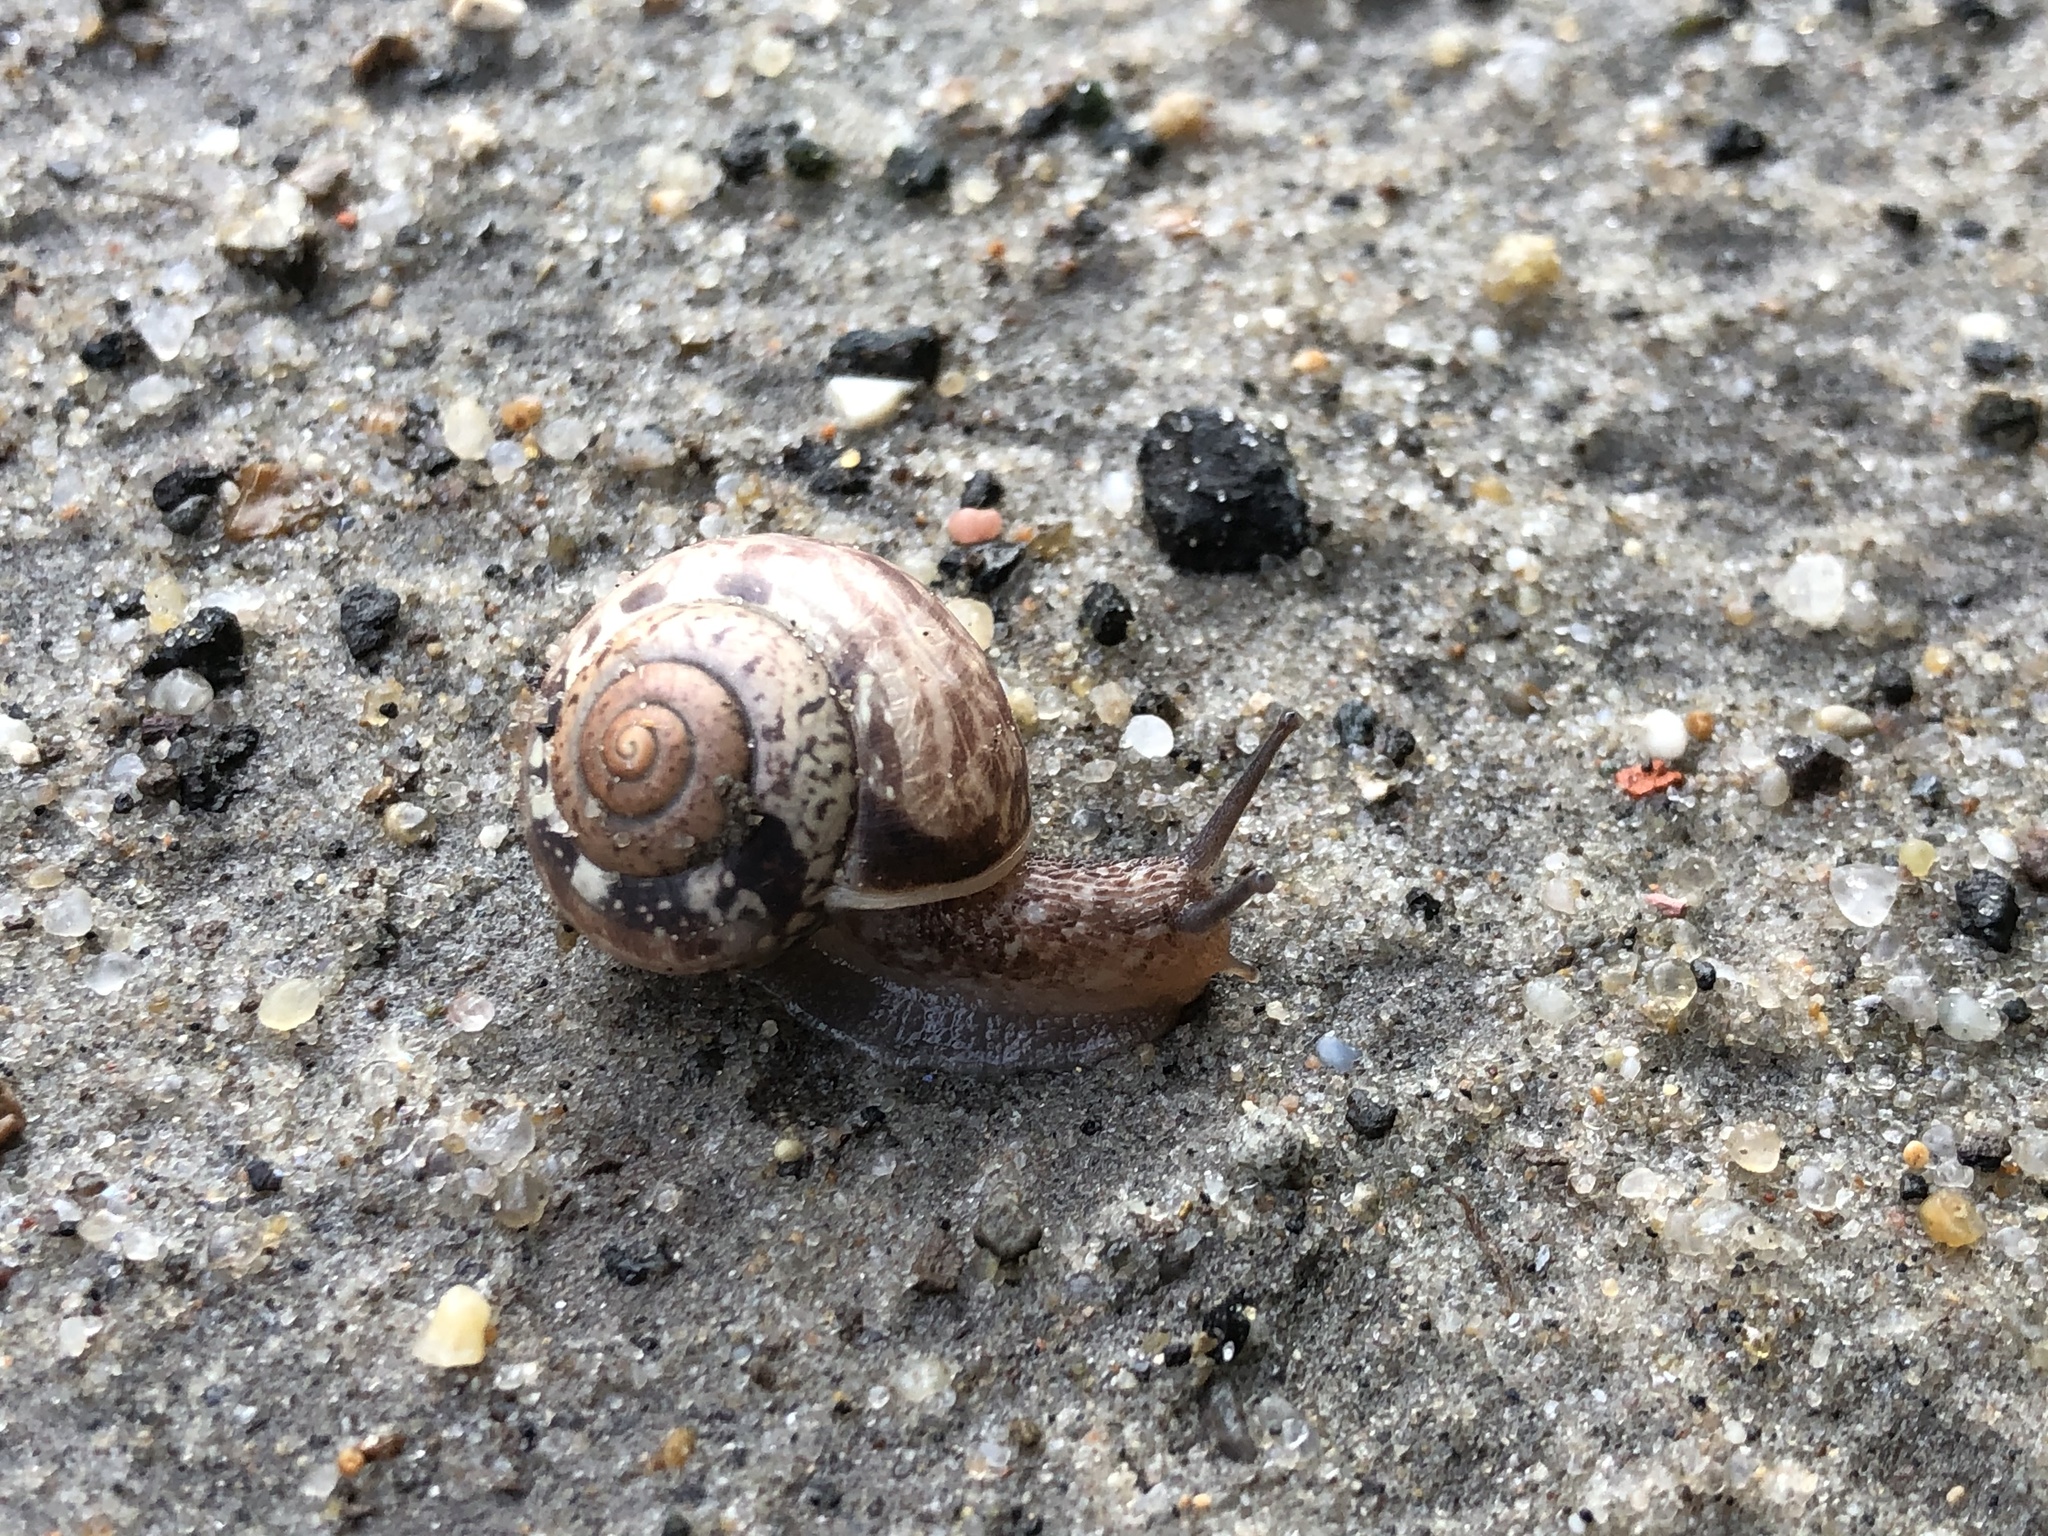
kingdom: Animalia
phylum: Mollusca
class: Gastropoda
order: Stylommatophora
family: Camaenidae
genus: Fruticicola
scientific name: Fruticicola fruticum
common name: Bush snail
